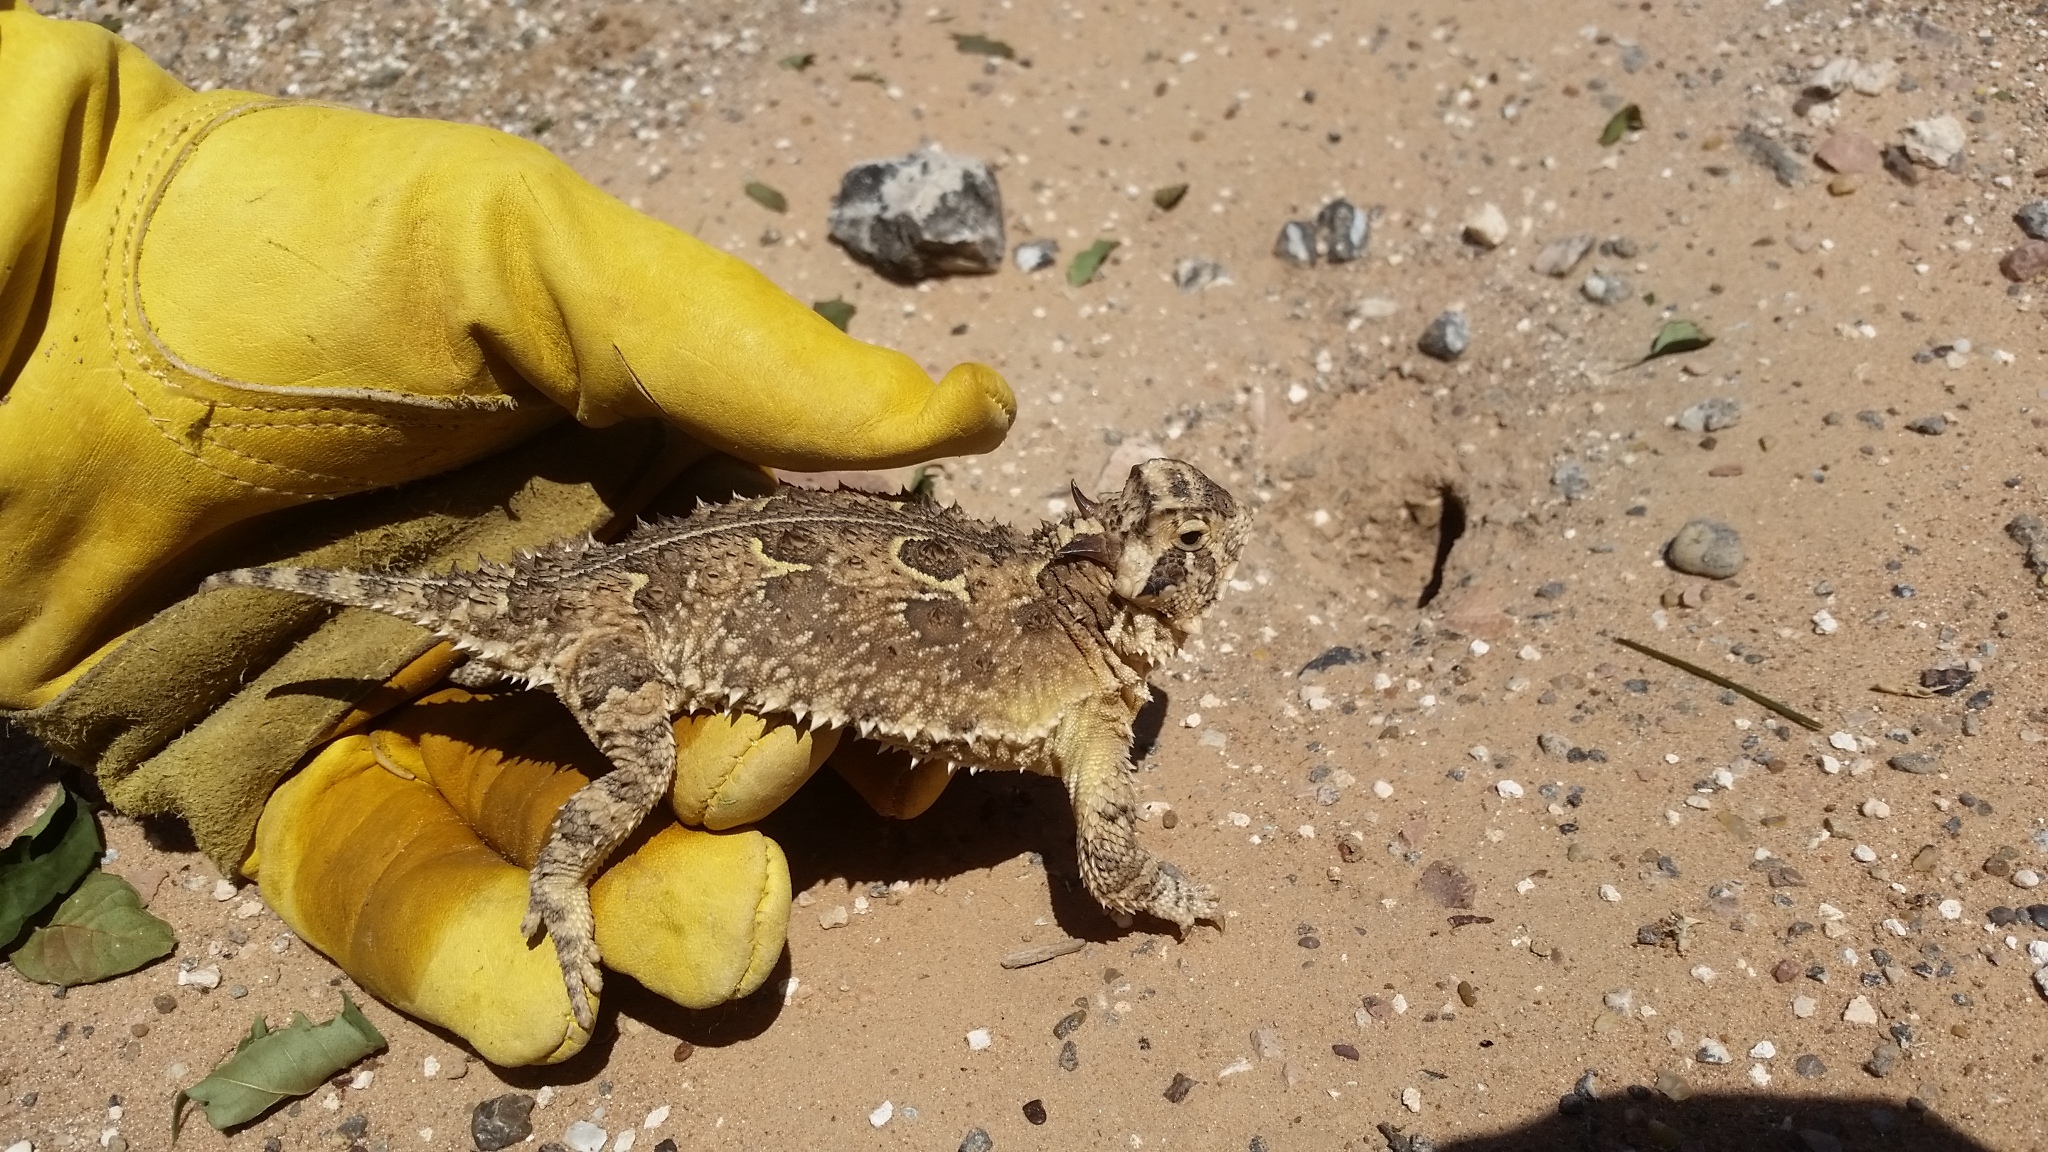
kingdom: Animalia
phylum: Chordata
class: Squamata
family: Phrynosomatidae
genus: Phrynosoma
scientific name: Phrynosoma cornutum
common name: Texas horned lizard
